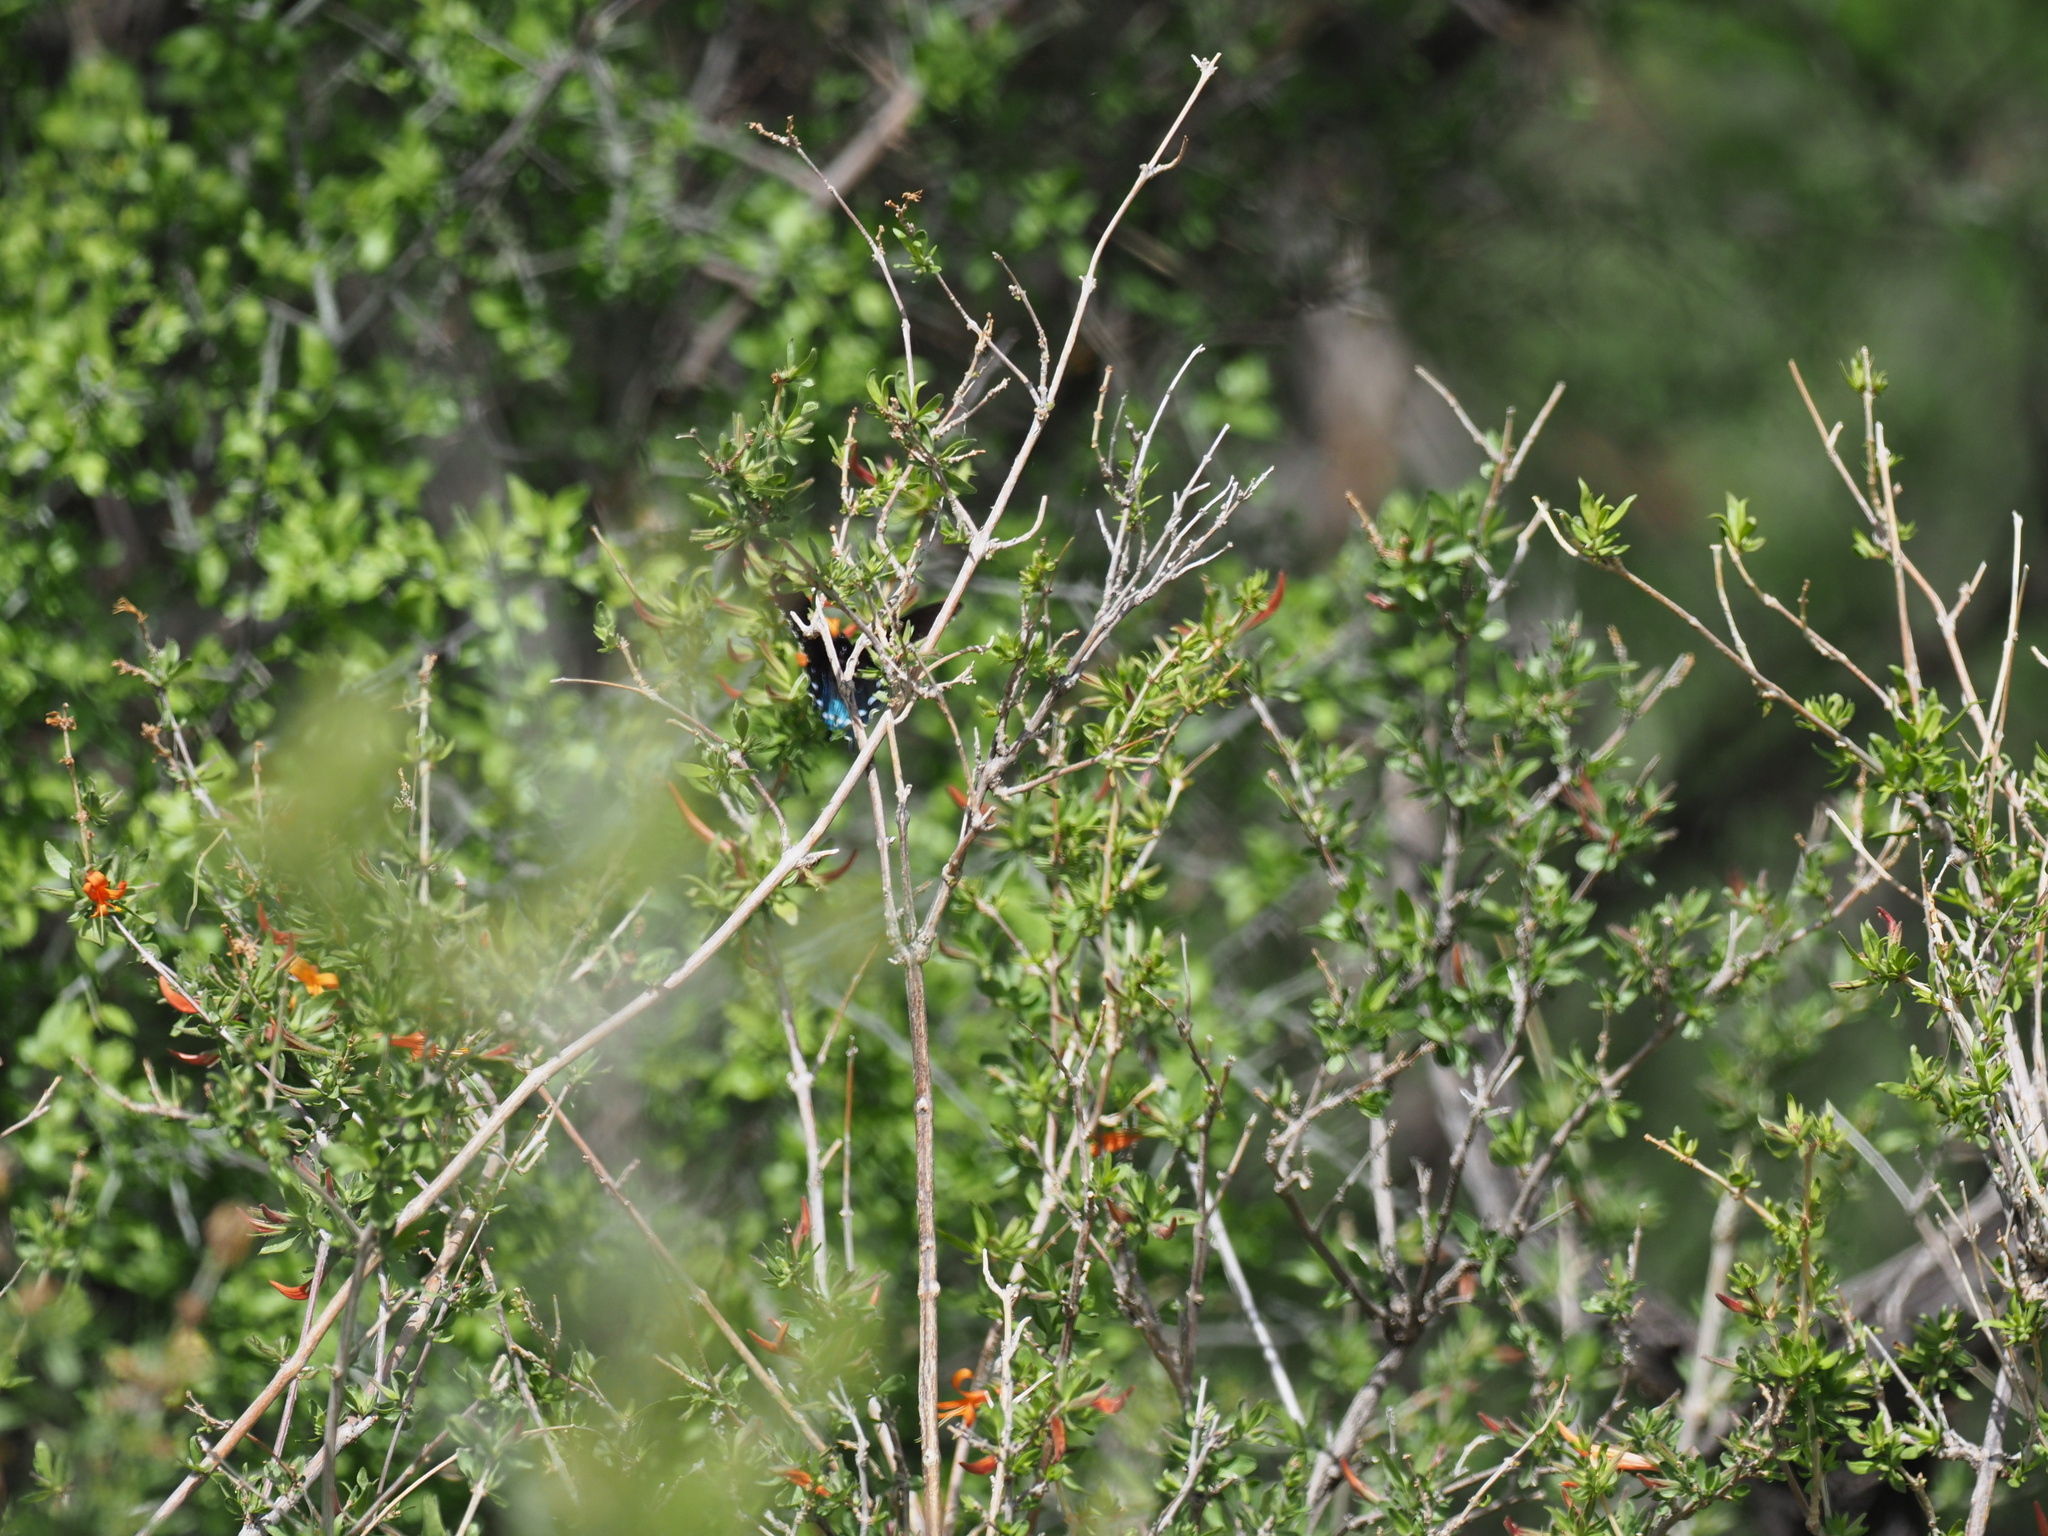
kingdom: Animalia
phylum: Arthropoda
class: Insecta
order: Lepidoptera
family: Papilionidae
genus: Battus
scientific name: Battus philenor
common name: Pipevine swallowtail
